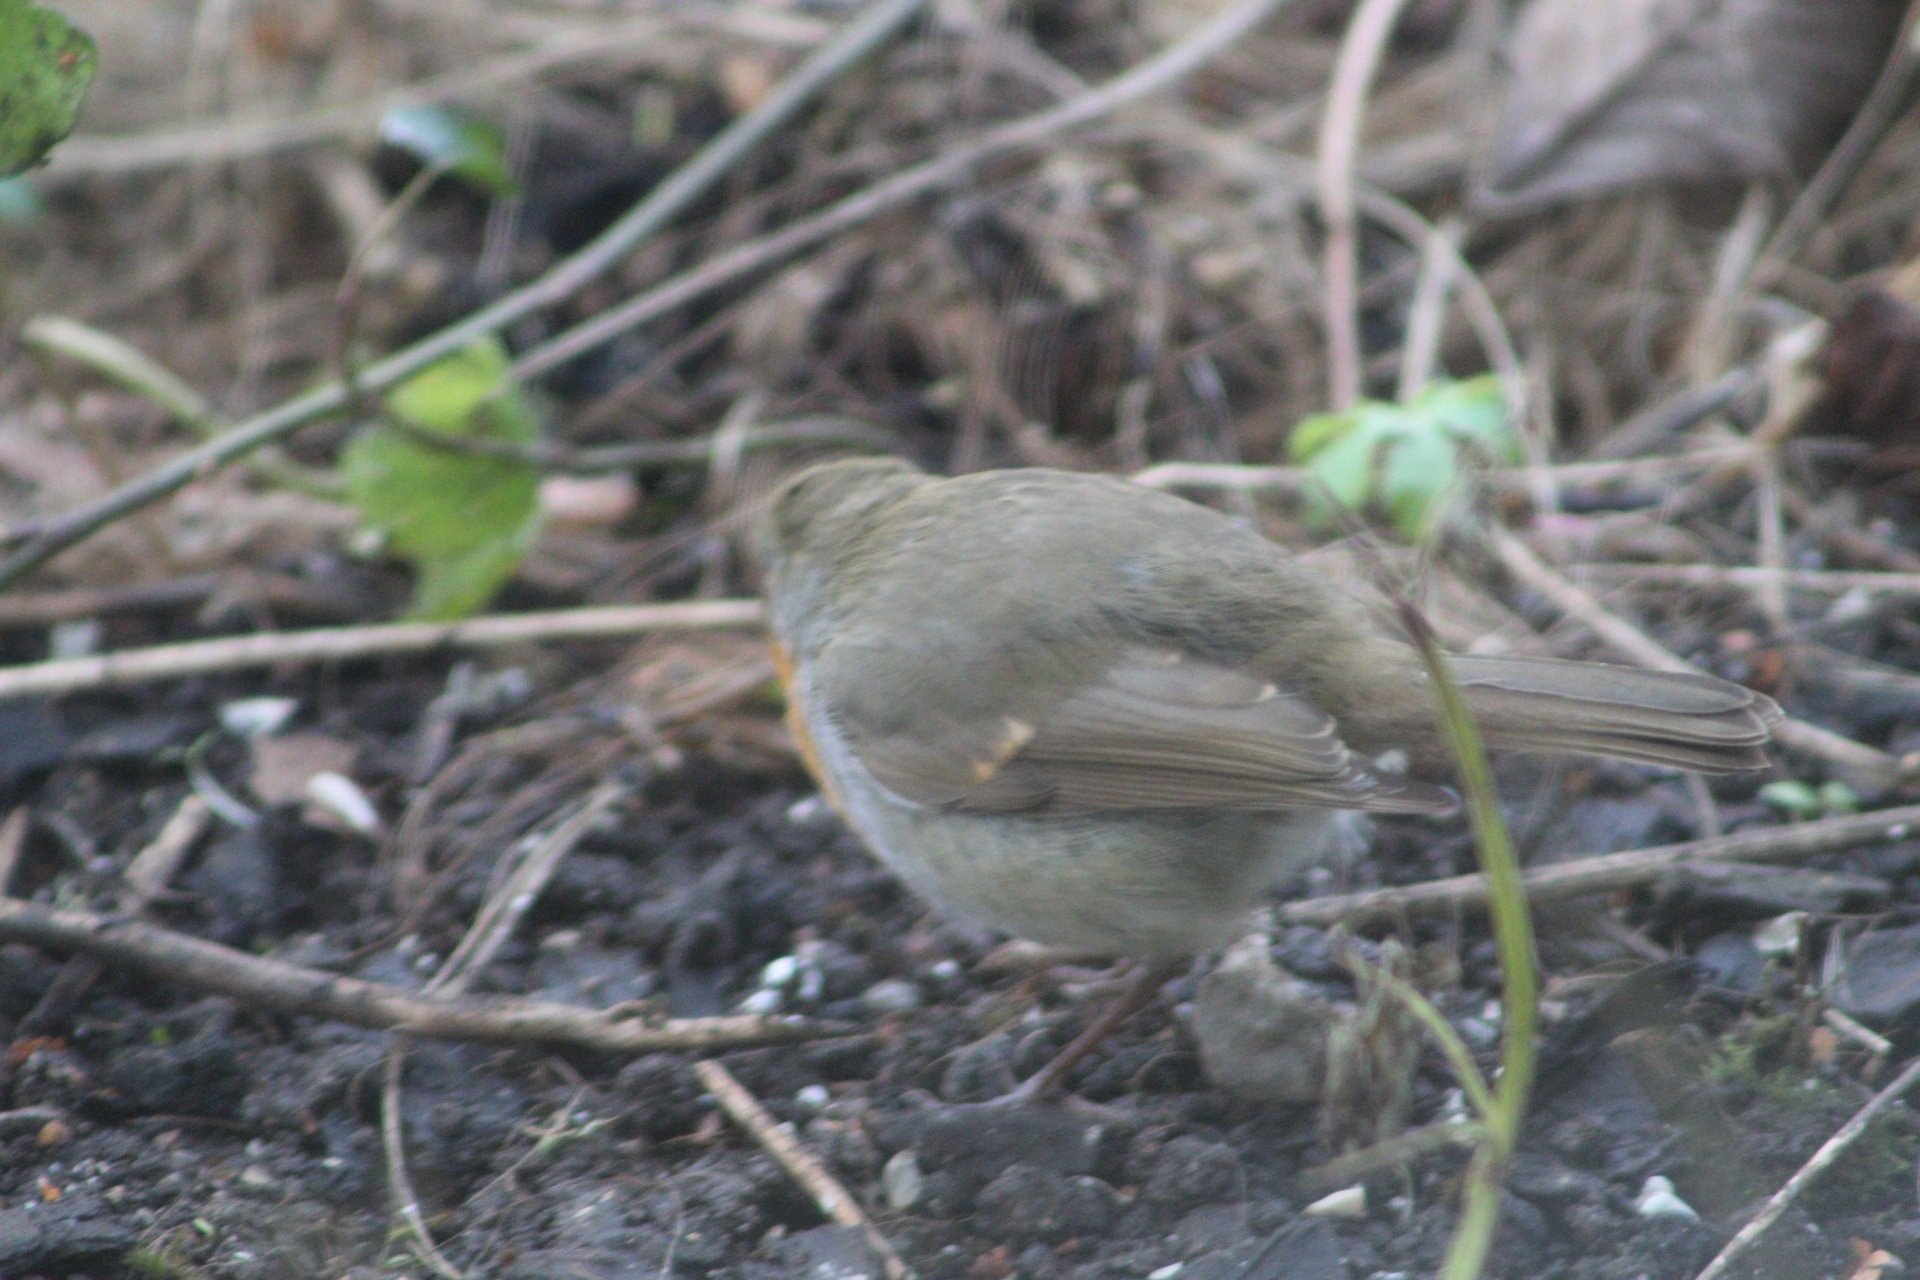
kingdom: Animalia
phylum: Chordata
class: Aves
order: Passeriformes
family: Muscicapidae
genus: Erithacus
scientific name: Erithacus rubecula
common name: European robin
